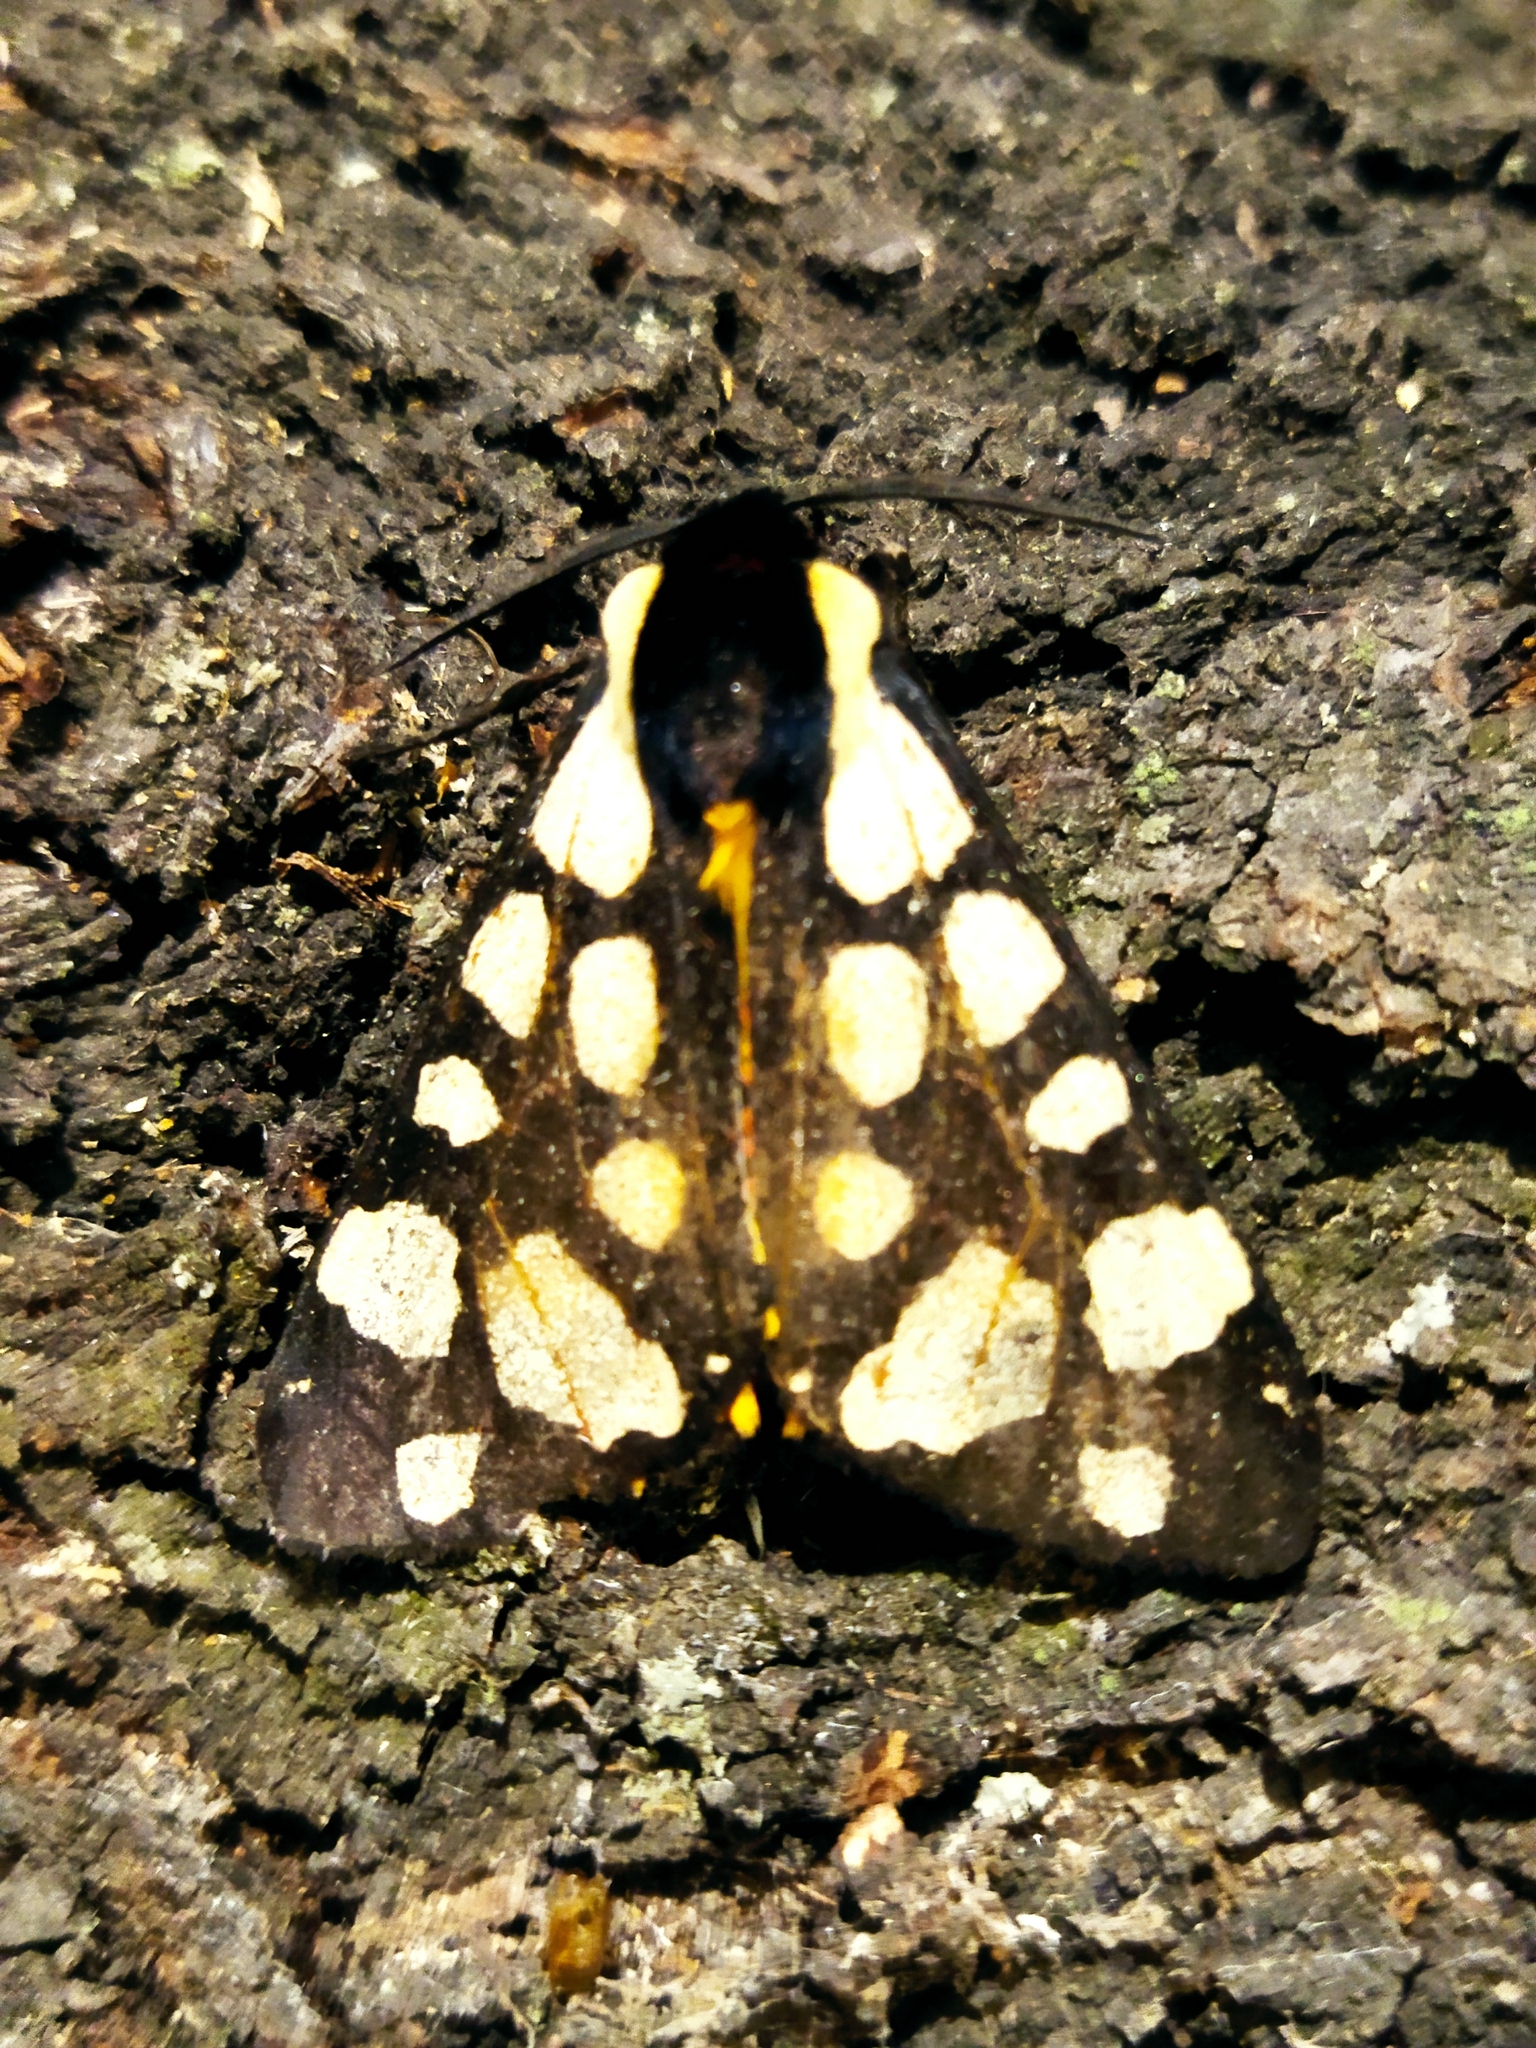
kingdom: Animalia
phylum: Arthropoda
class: Insecta
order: Lepidoptera
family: Erebidae
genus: Epicallia
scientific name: Epicallia villica
